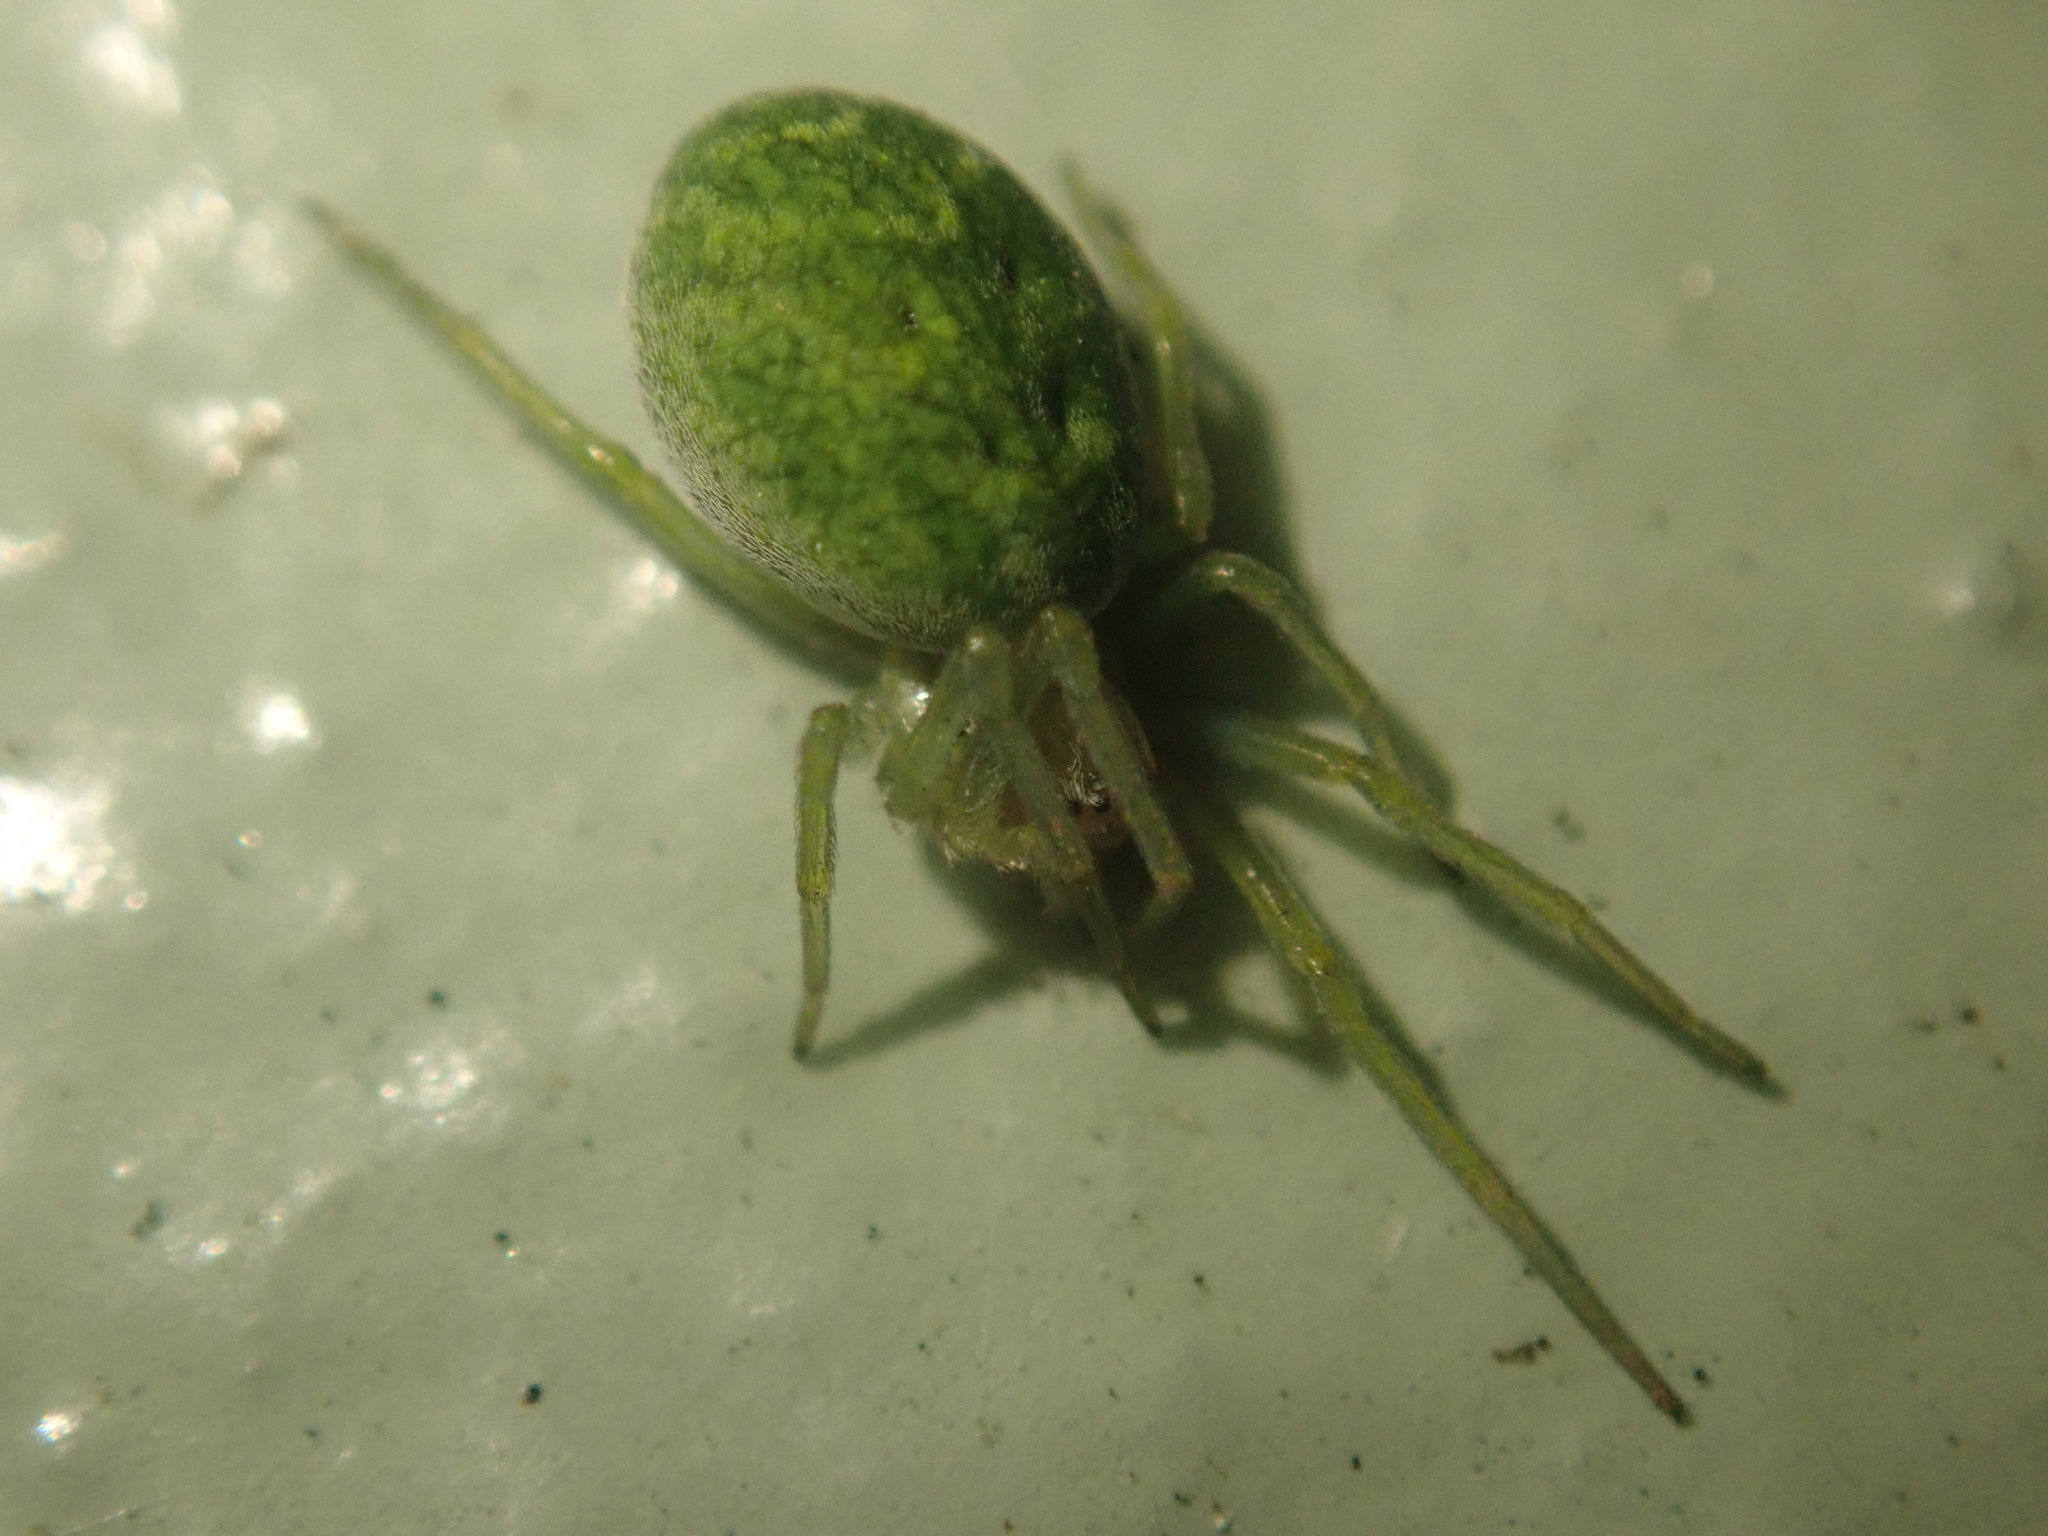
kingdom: Animalia
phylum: Arthropoda
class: Arachnida
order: Araneae
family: Dictynidae
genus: Nigma
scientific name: Nigma walckenaeri
